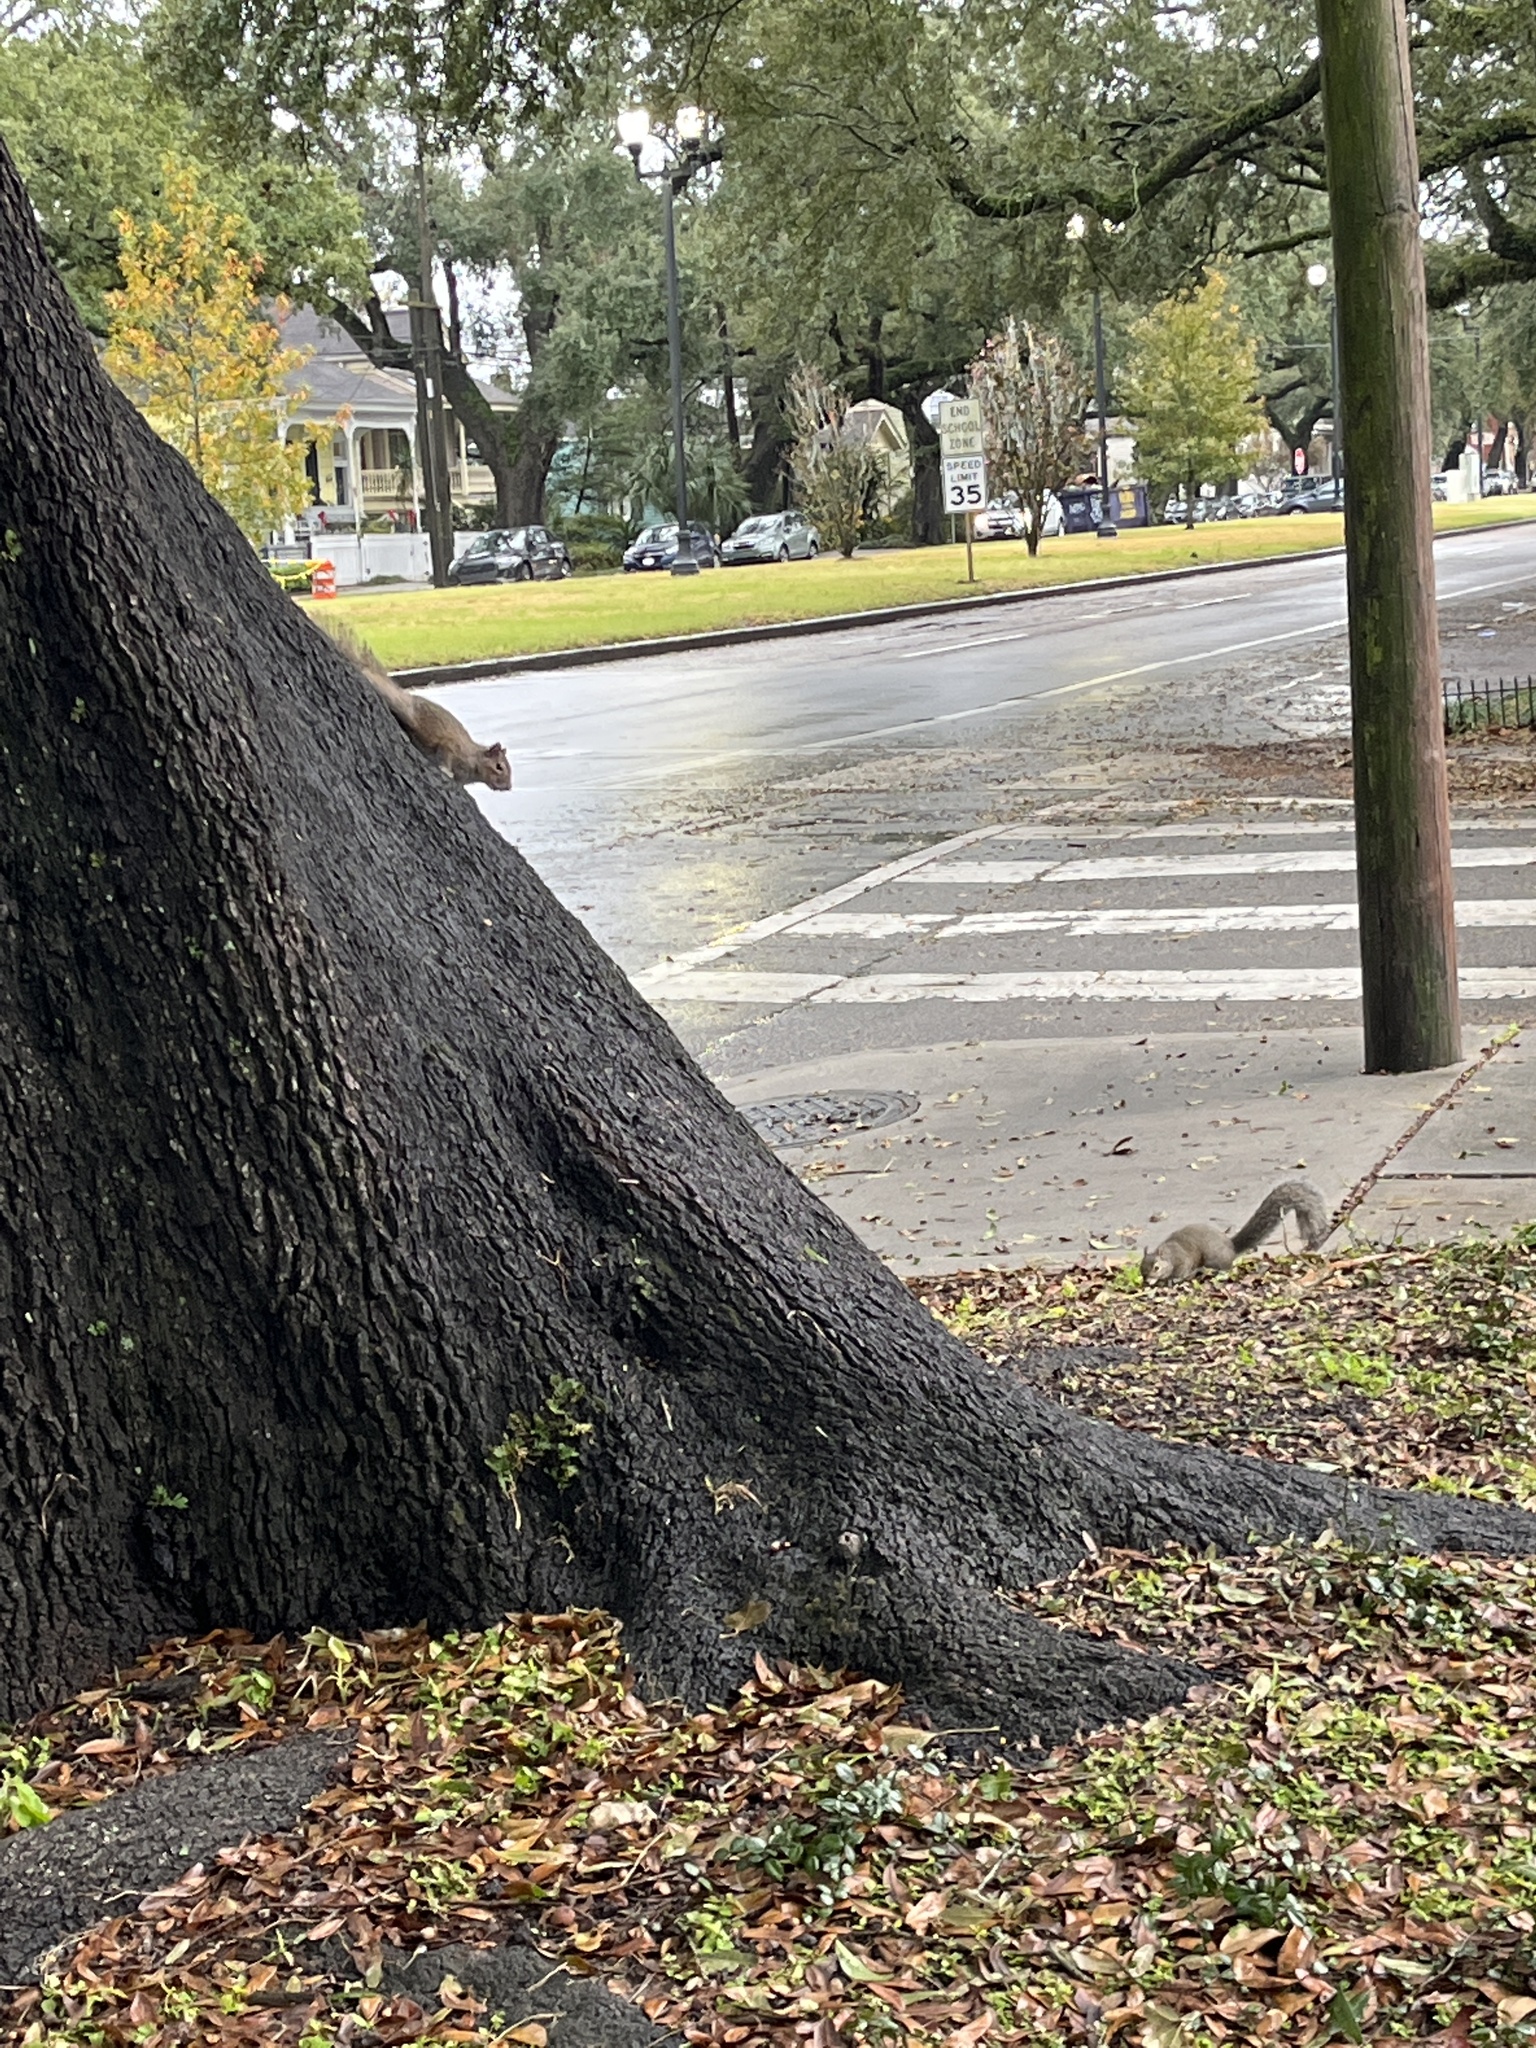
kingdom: Animalia
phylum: Chordata
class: Mammalia
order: Rodentia
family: Sciuridae
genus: Sciurus
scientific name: Sciurus carolinensis
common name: Eastern gray squirrel
